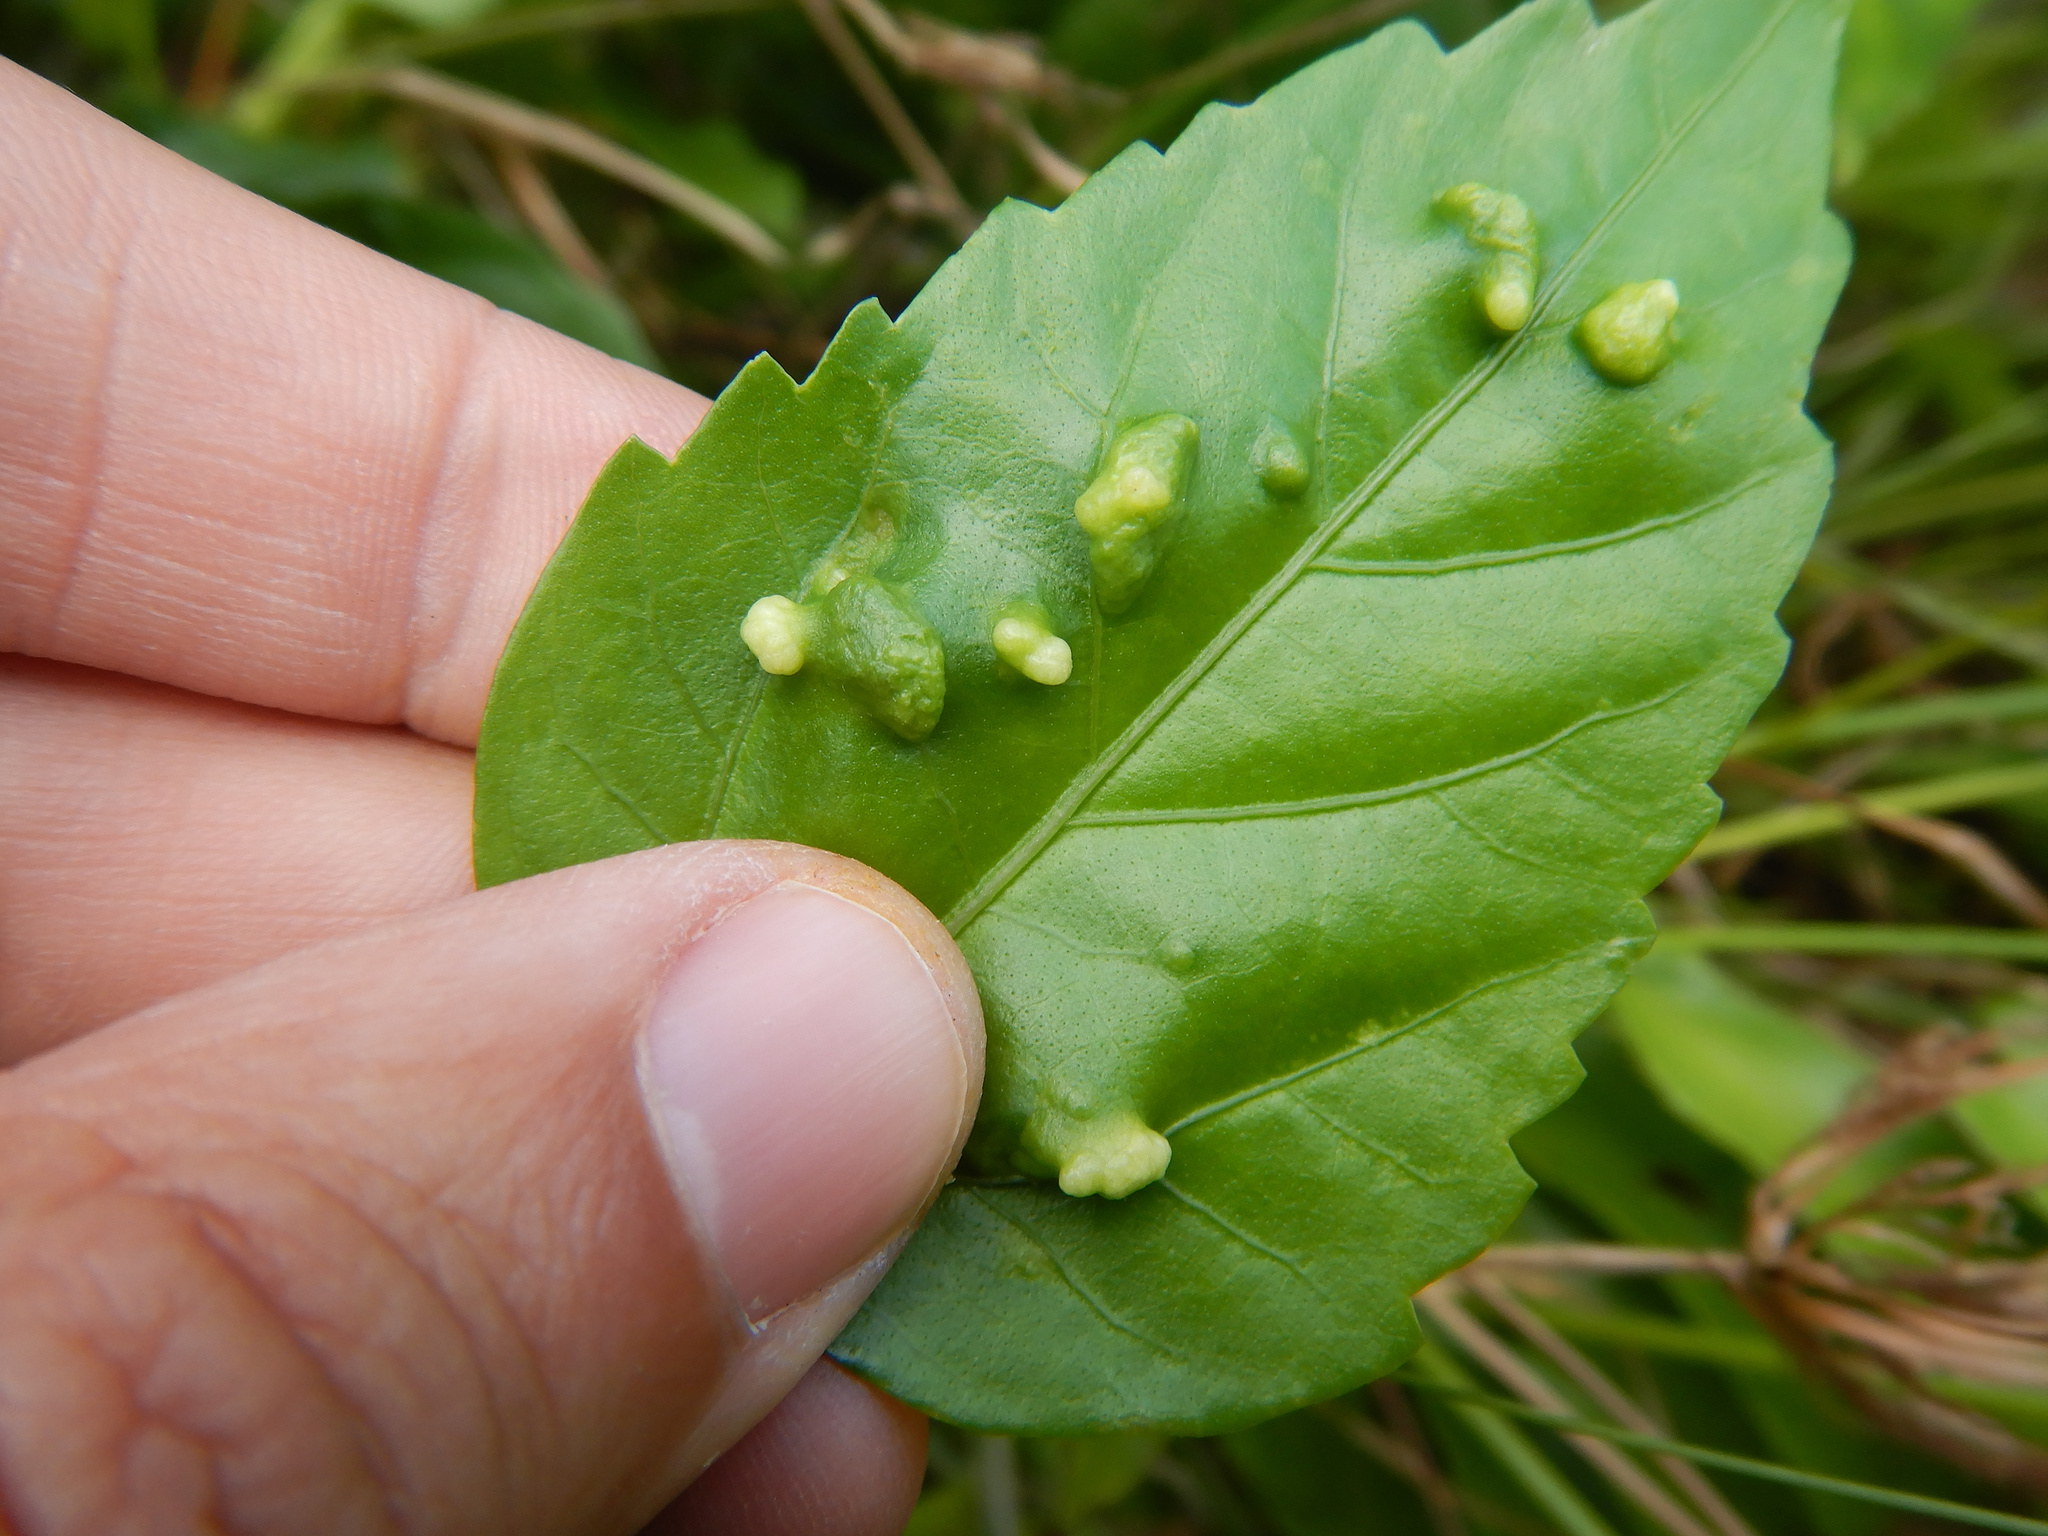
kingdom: Animalia
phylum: Arthropoda
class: Arachnida
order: Trombidiformes
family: Eriophyidae
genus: Aceria
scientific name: Aceria hibisci
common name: Mite
